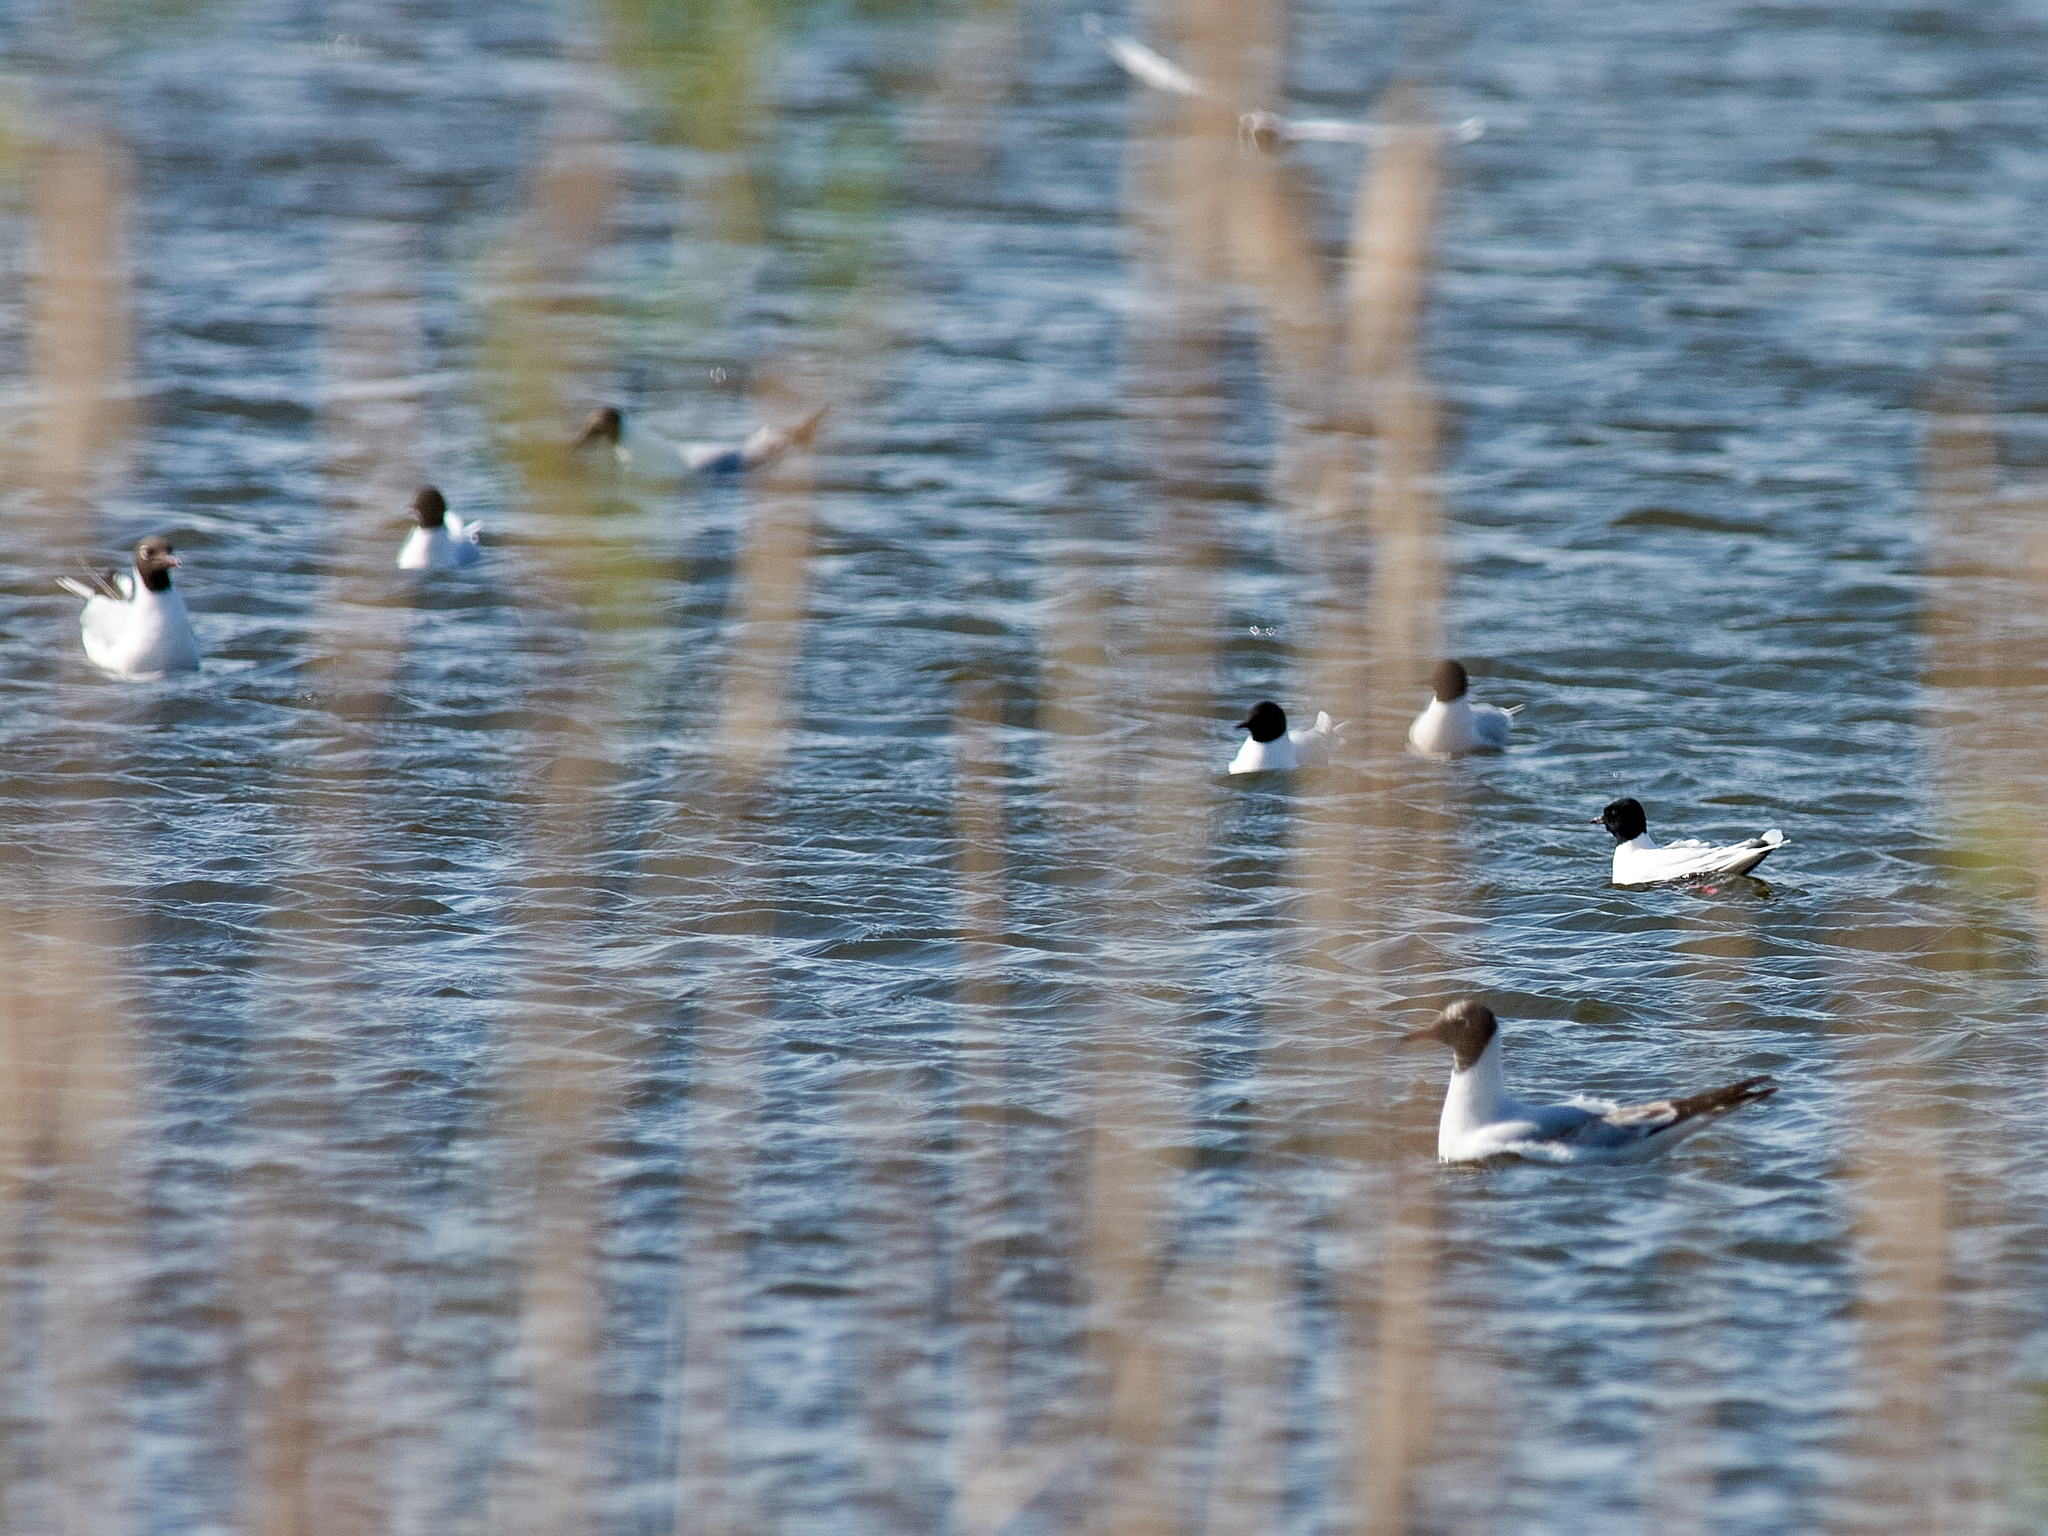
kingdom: Animalia
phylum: Chordata
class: Aves
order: Charadriiformes
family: Laridae
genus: Hydrocoloeus
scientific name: Hydrocoloeus minutus
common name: Little gull
